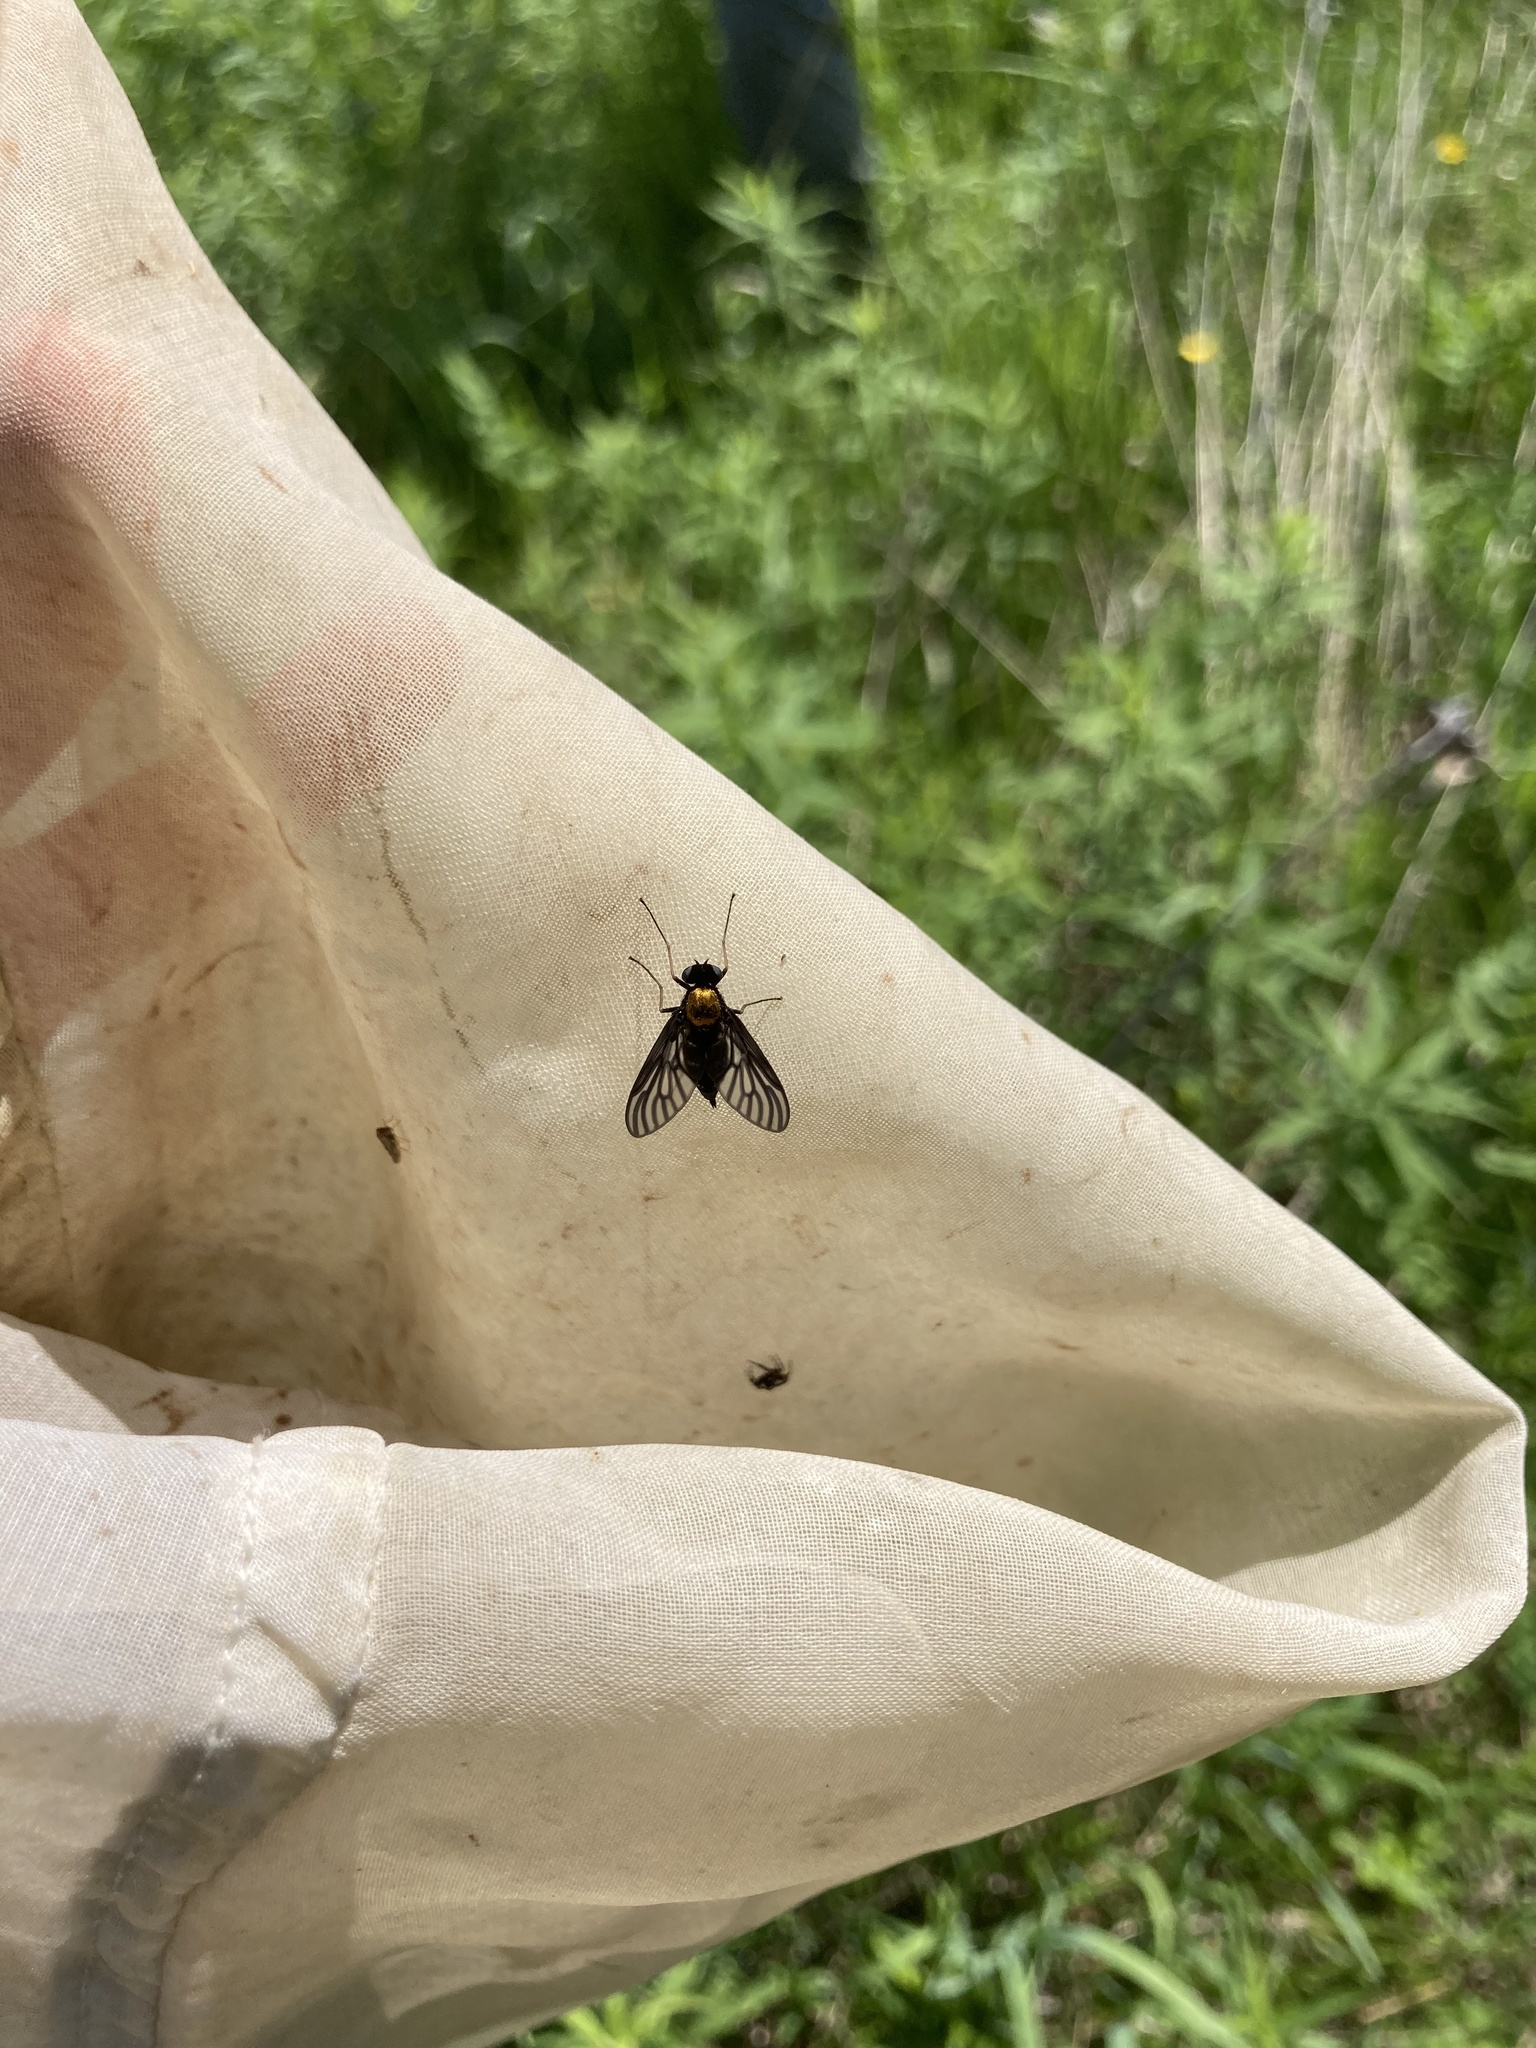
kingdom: Animalia
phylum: Arthropoda
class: Insecta
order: Diptera
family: Rhagionidae
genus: Chrysopilus
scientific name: Chrysopilus thoracicus
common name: Golden-backed snipe fly
